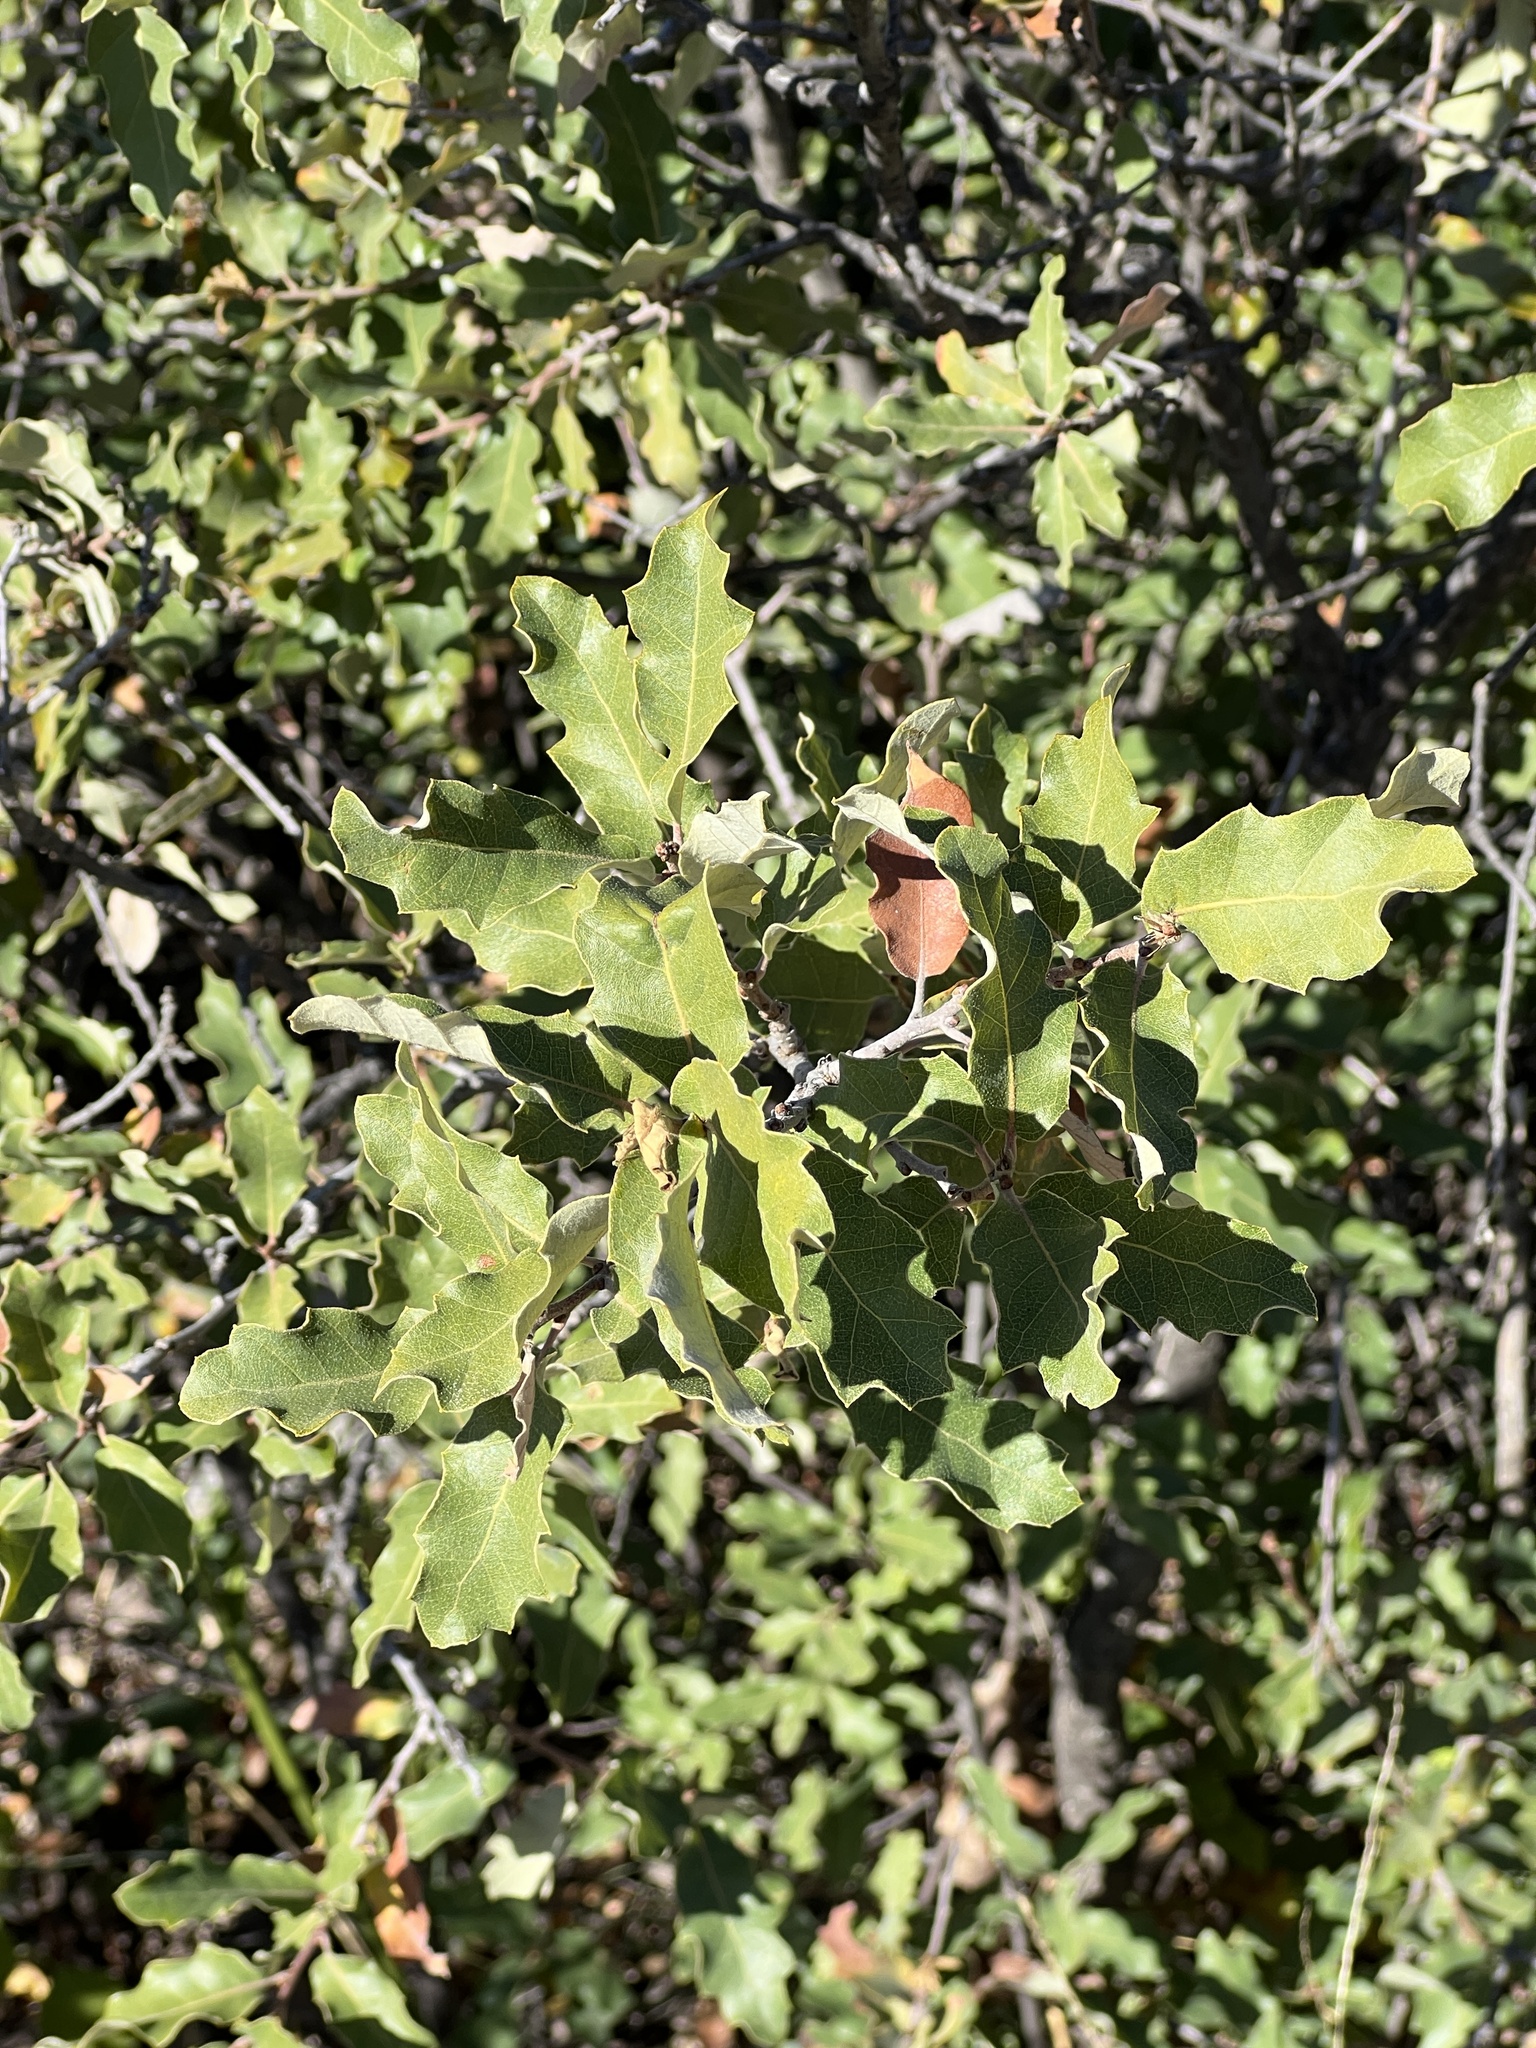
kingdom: Plantae
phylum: Tracheophyta
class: Magnoliopsida
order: Fagales
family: Fagaceae
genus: Quercus
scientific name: Quercus vaseyana
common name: Sandpaper oak
